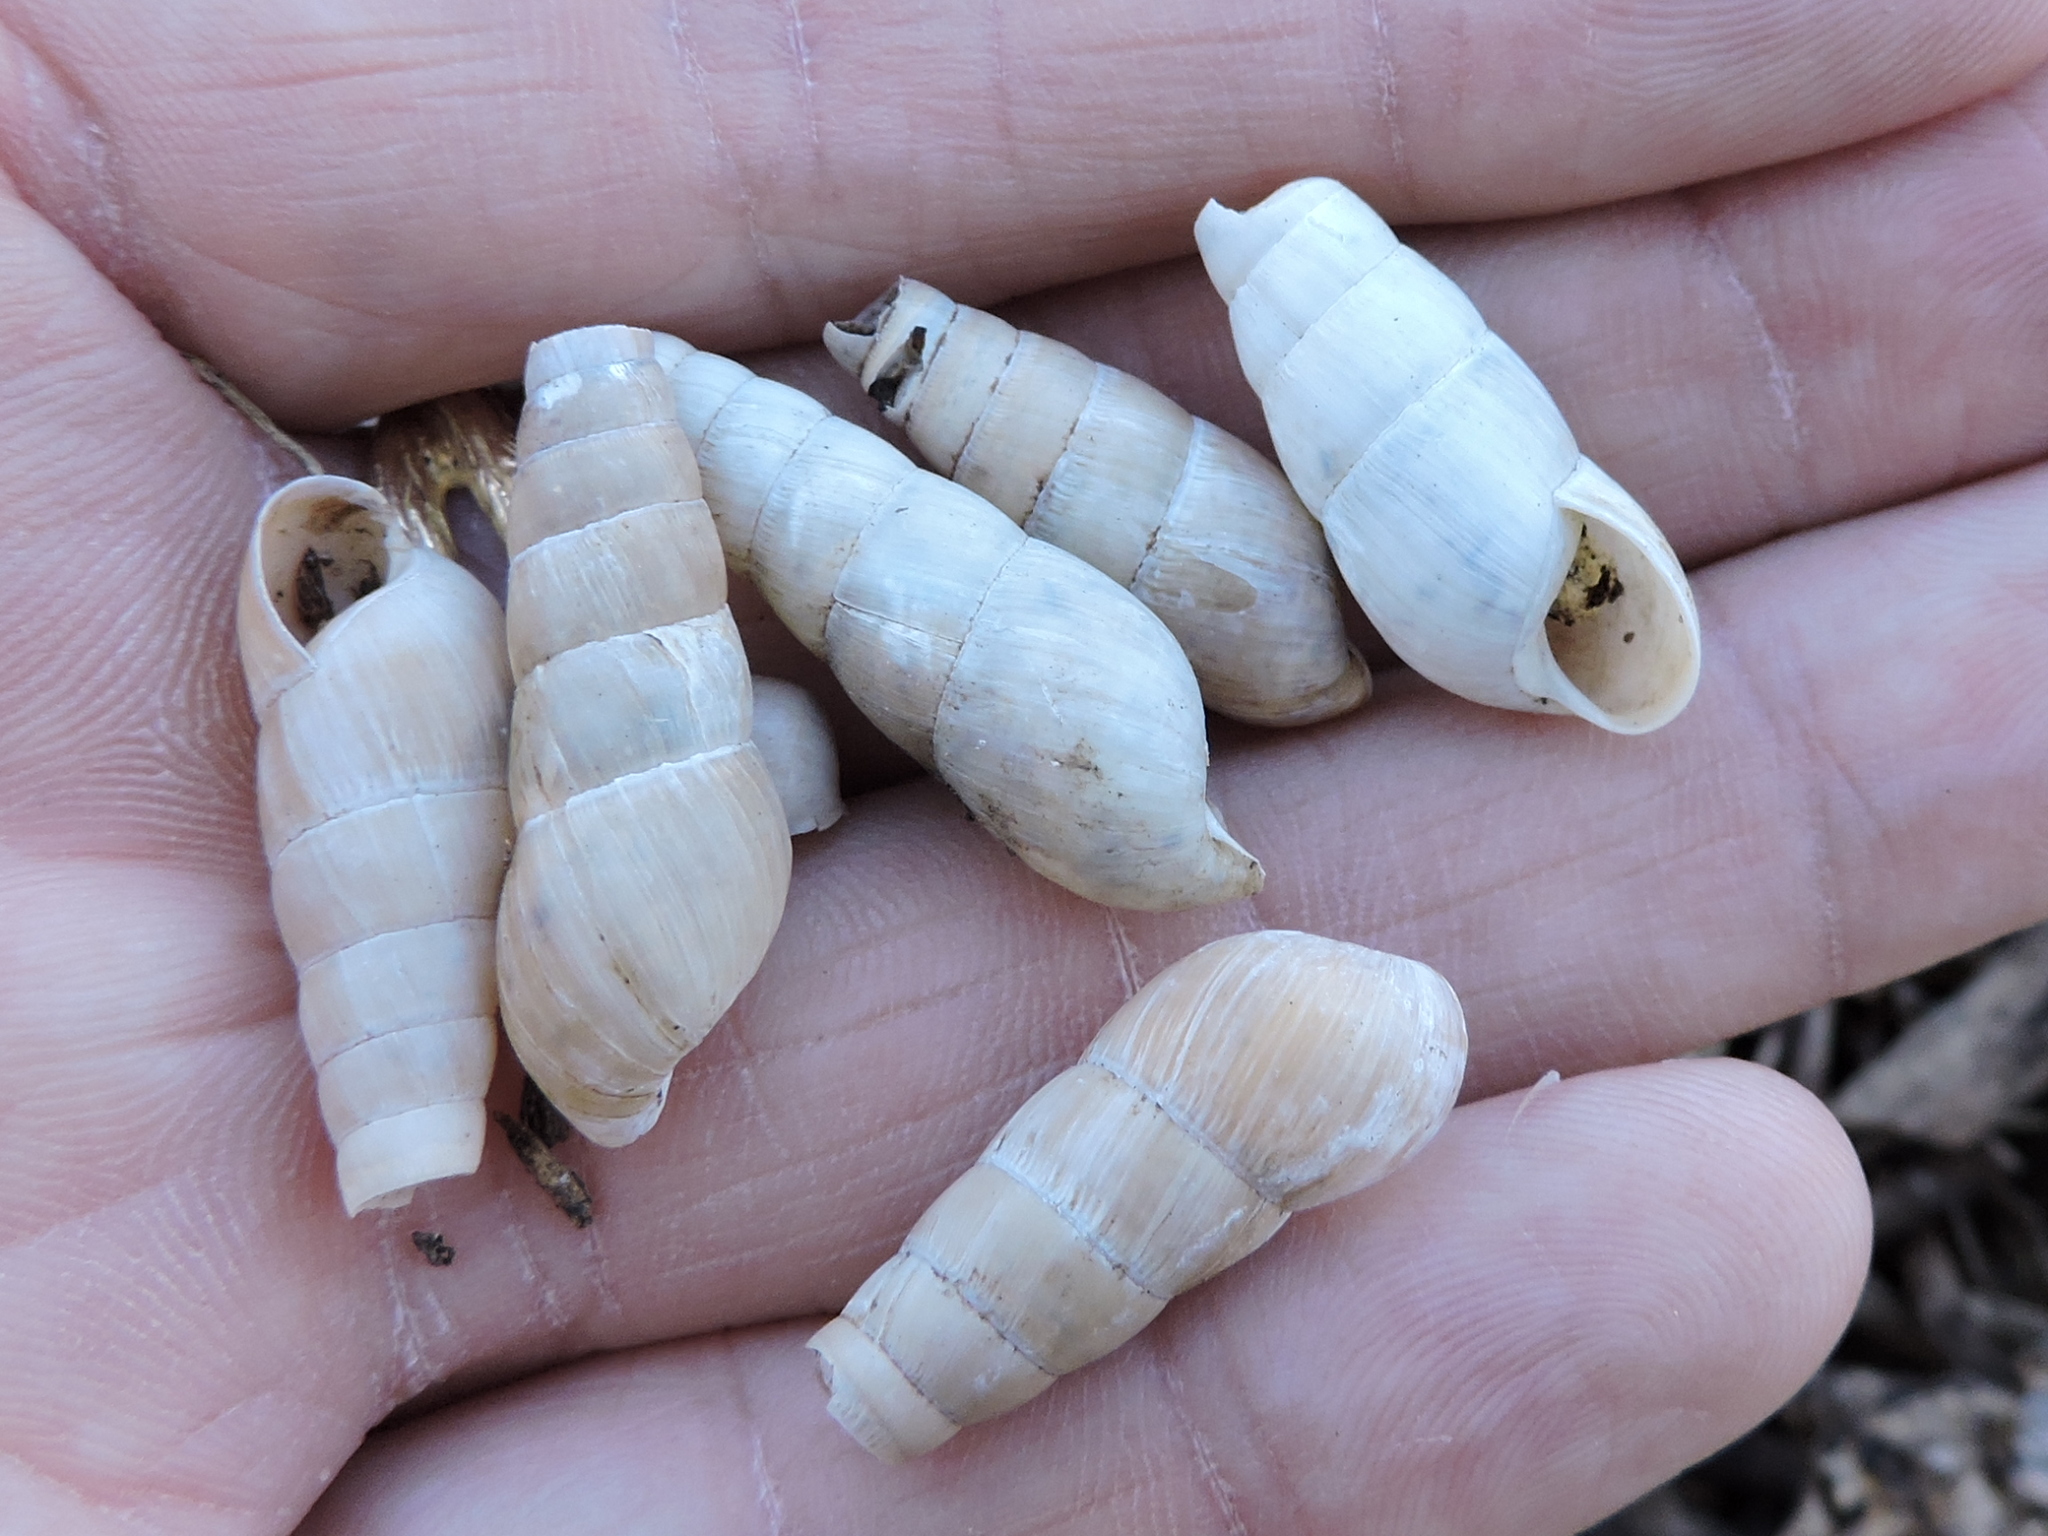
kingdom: Animalia
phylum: Mollusca
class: Gastropoda
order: Stylommatophora
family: Achatinidae
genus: Rumina
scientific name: Rumina decollata
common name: Decollate snail
